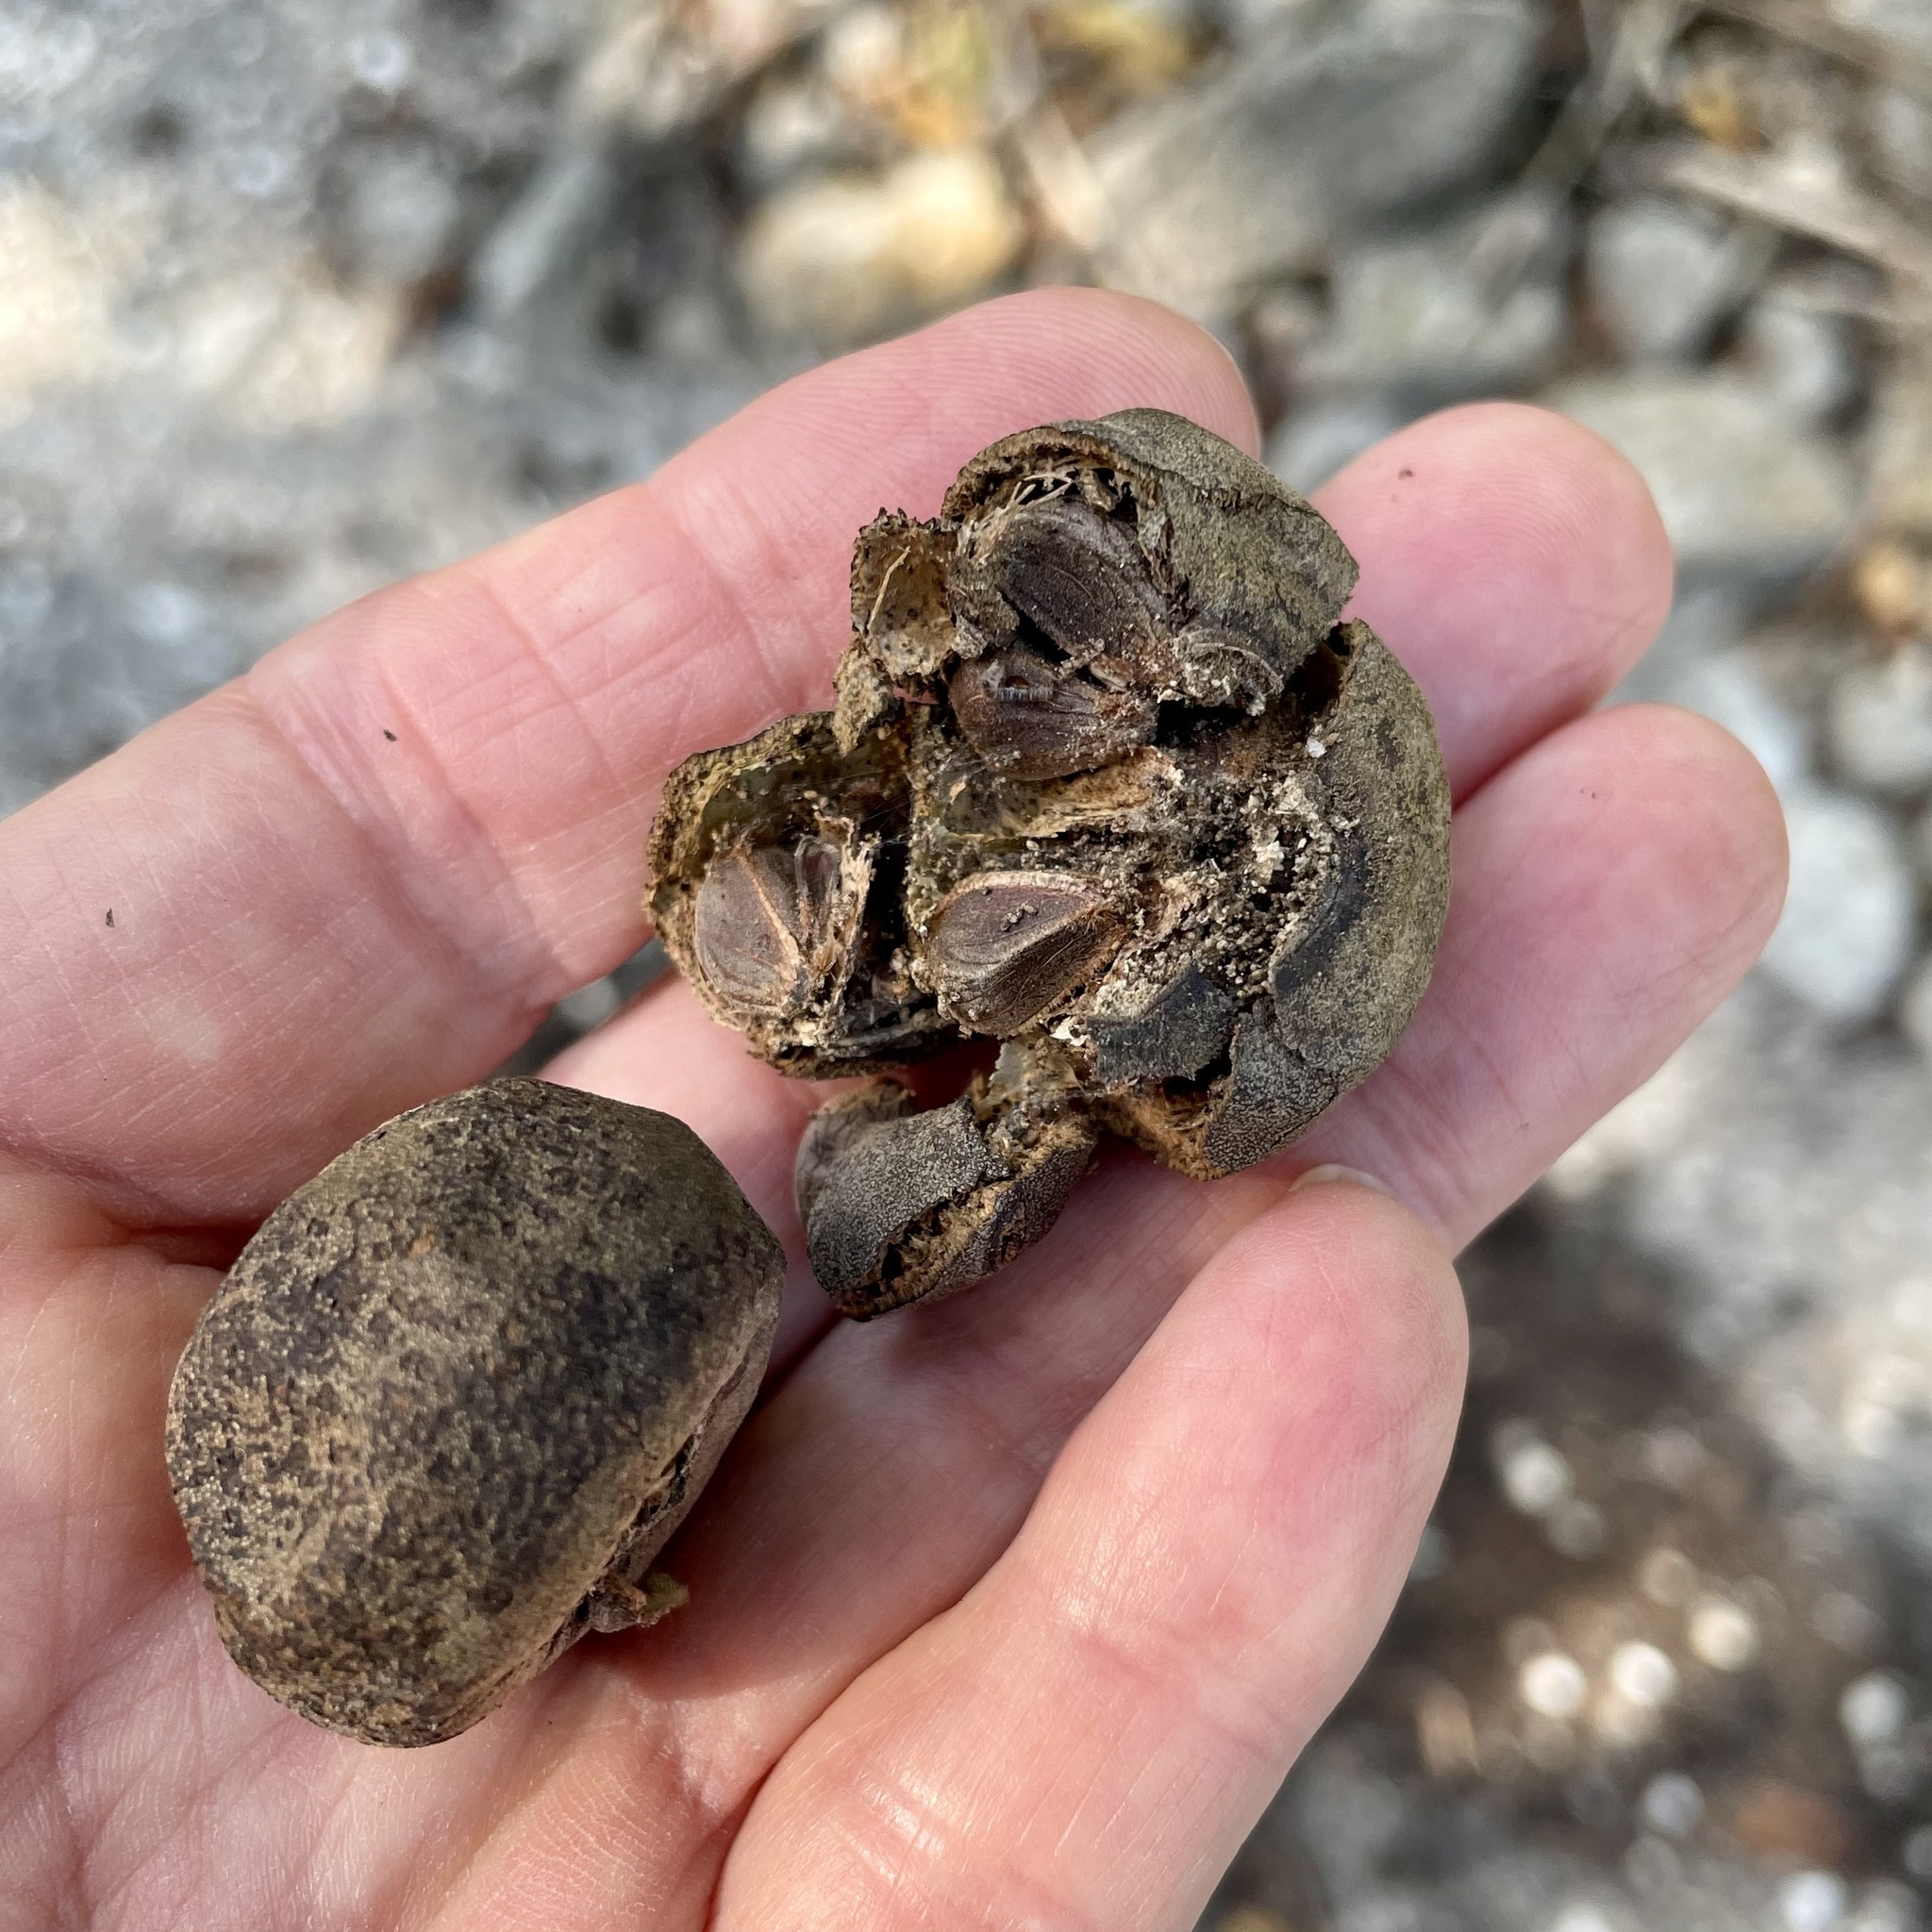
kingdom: Plantae
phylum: Tracheophyta
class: Magnoliopsida
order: Malvales
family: Malvaceae
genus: Thespesia
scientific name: Thespesia populnea
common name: Seaside mahoe
